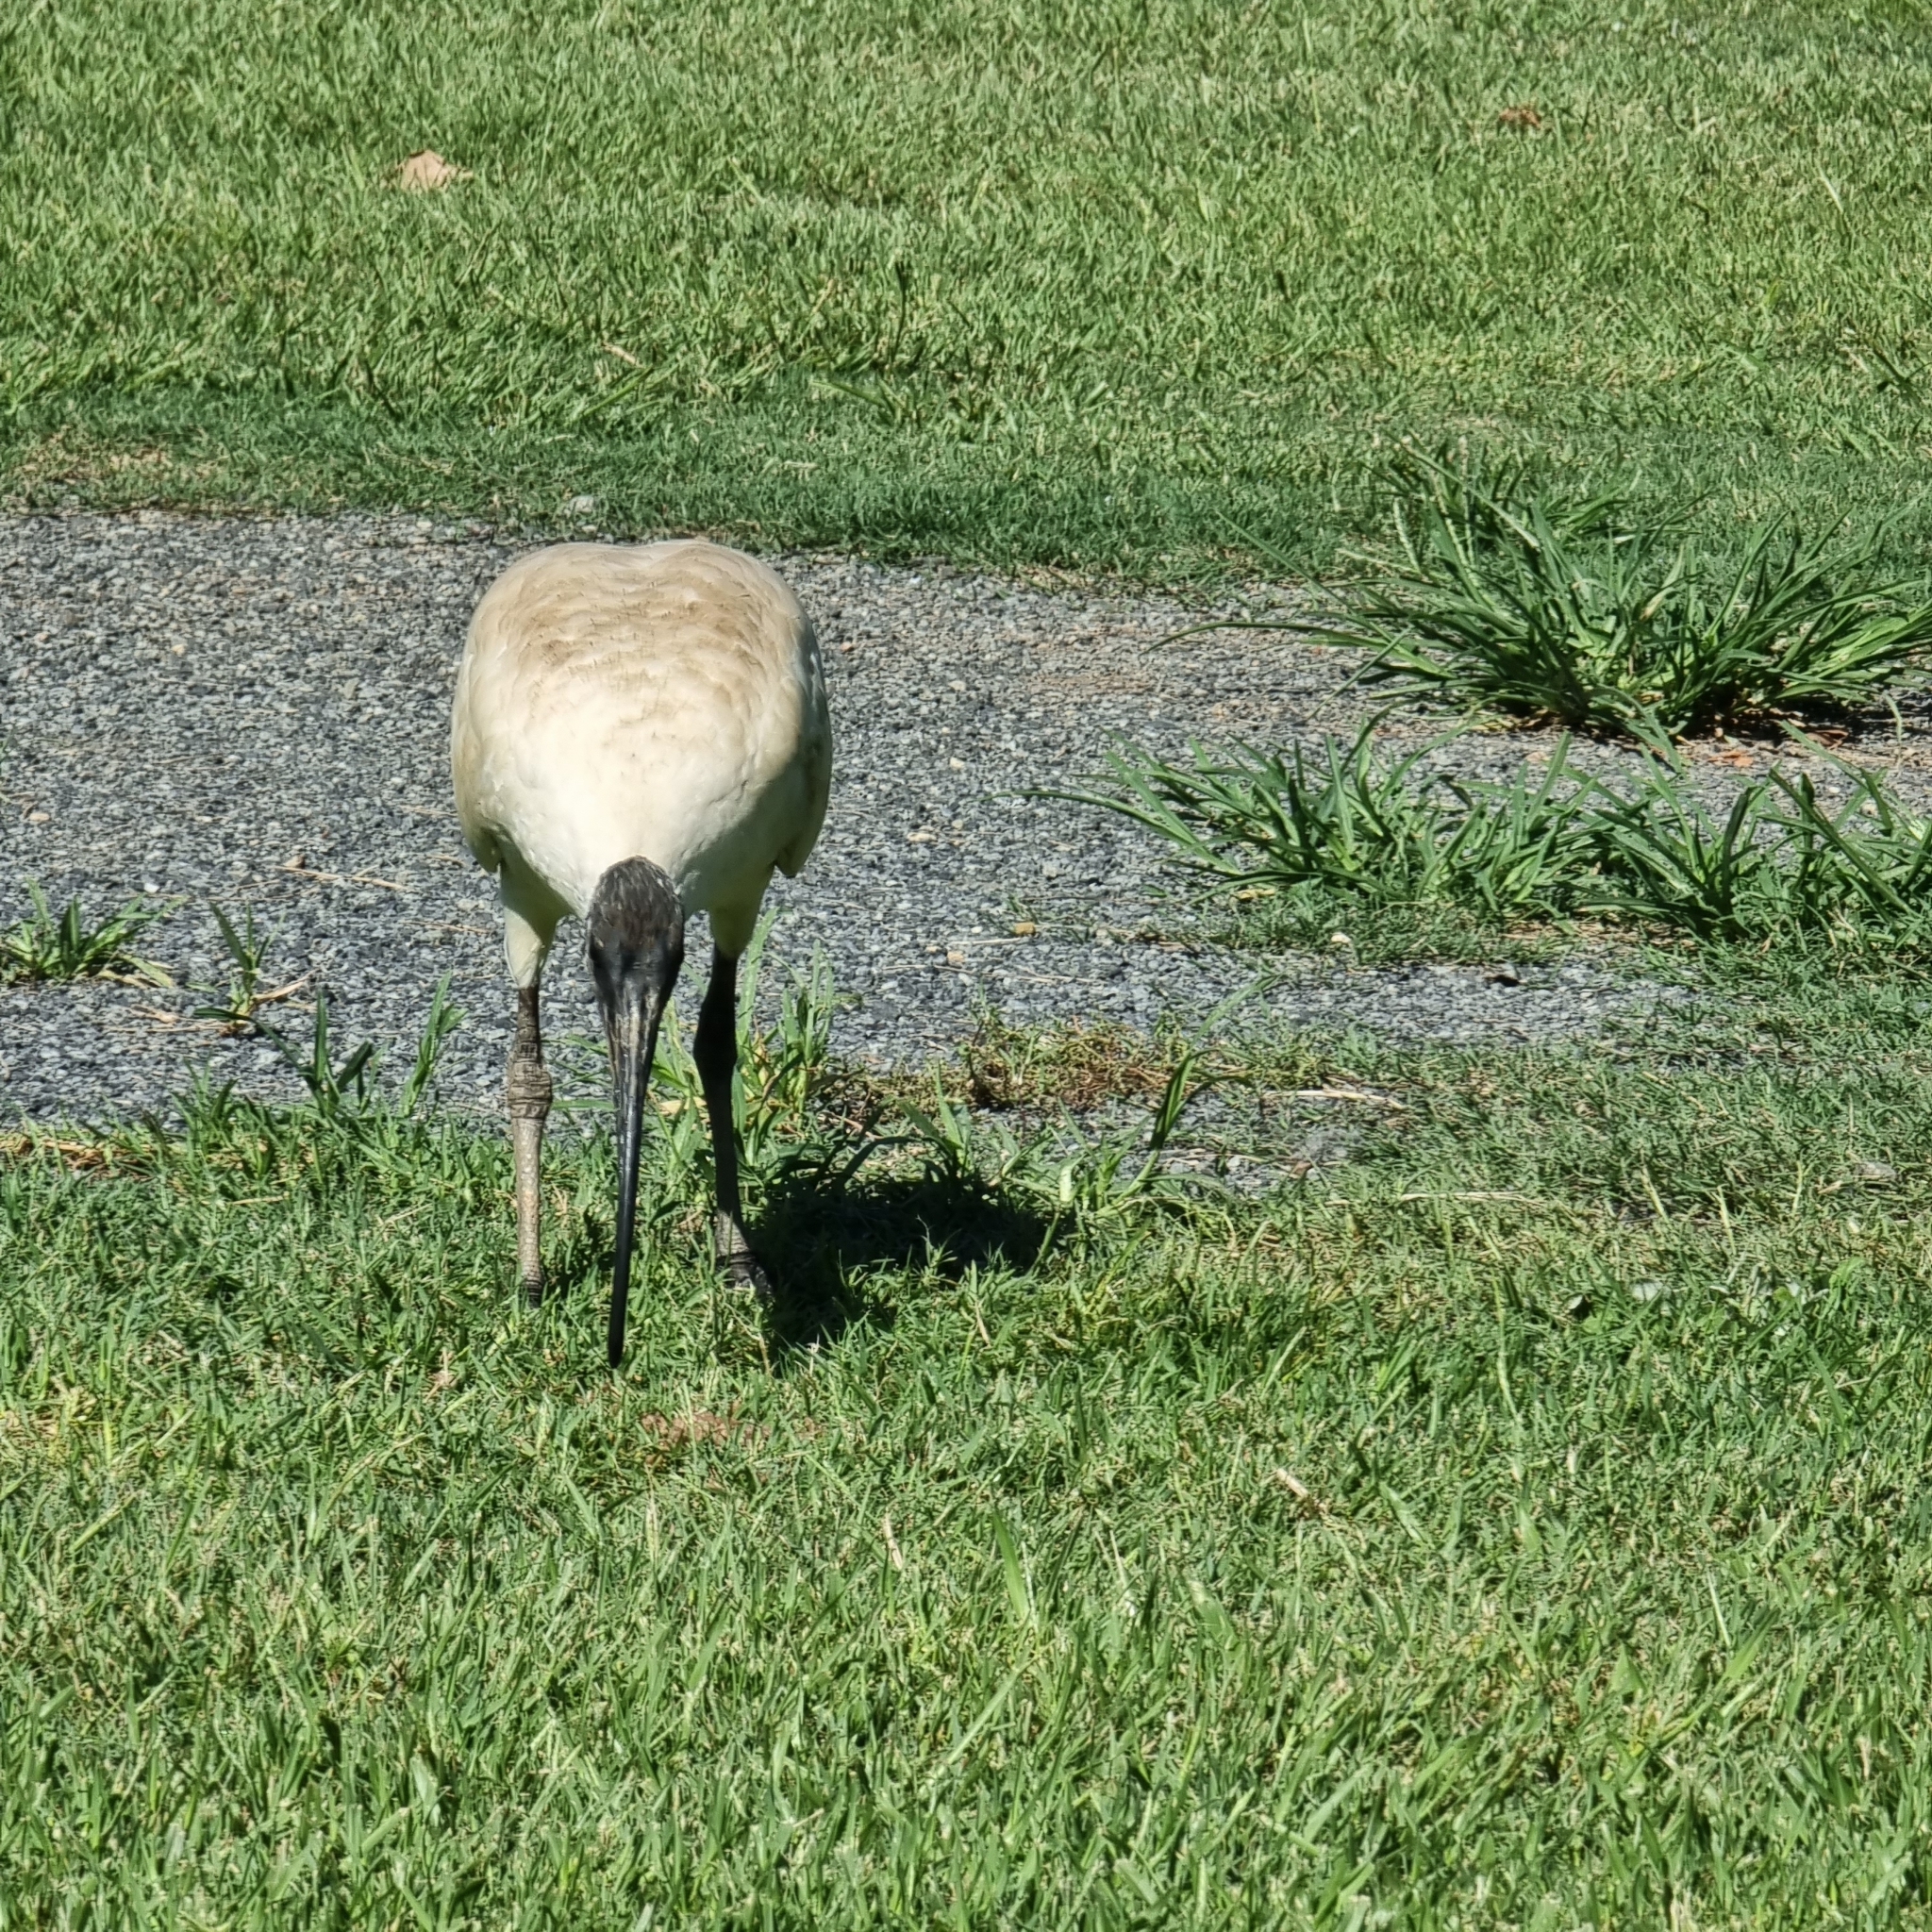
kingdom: Animalia
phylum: Chordata
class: Aves
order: Pelecaniformes
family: Threskiornithidae
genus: Threskiornis
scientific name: Threskiornis molucca
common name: Australian white ibis
